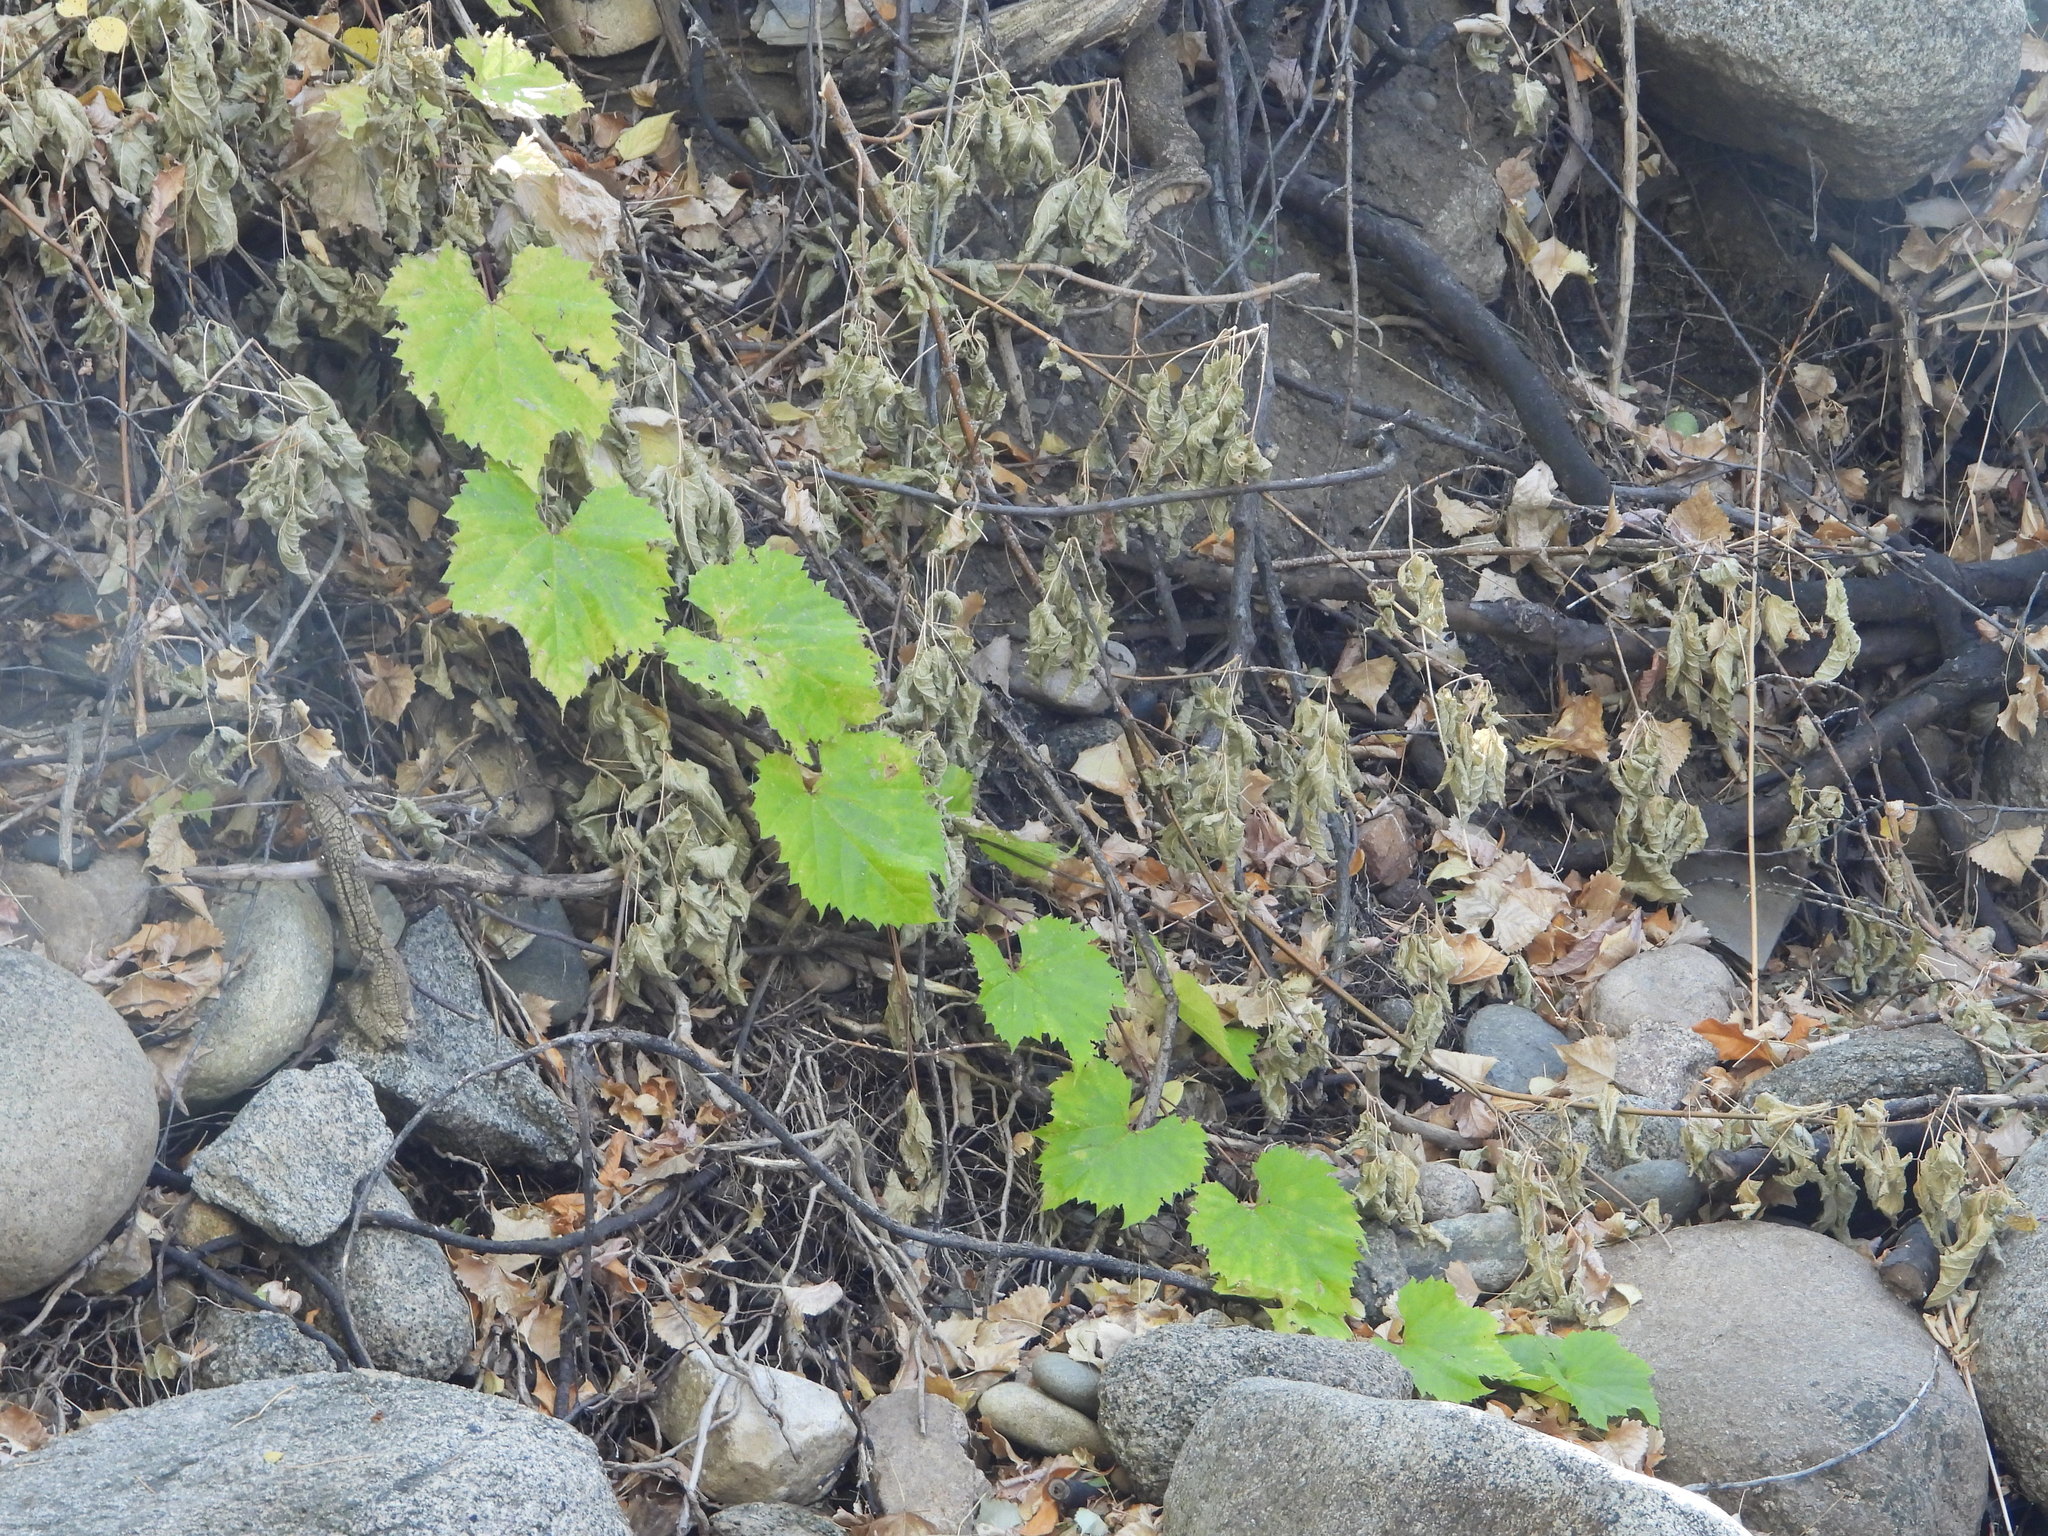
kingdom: Plantae
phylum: Tracheophyta
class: Magnoliopsida
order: Vitales
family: Vitaceae
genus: Vitis
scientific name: Vitis riparia
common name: Frost grape
